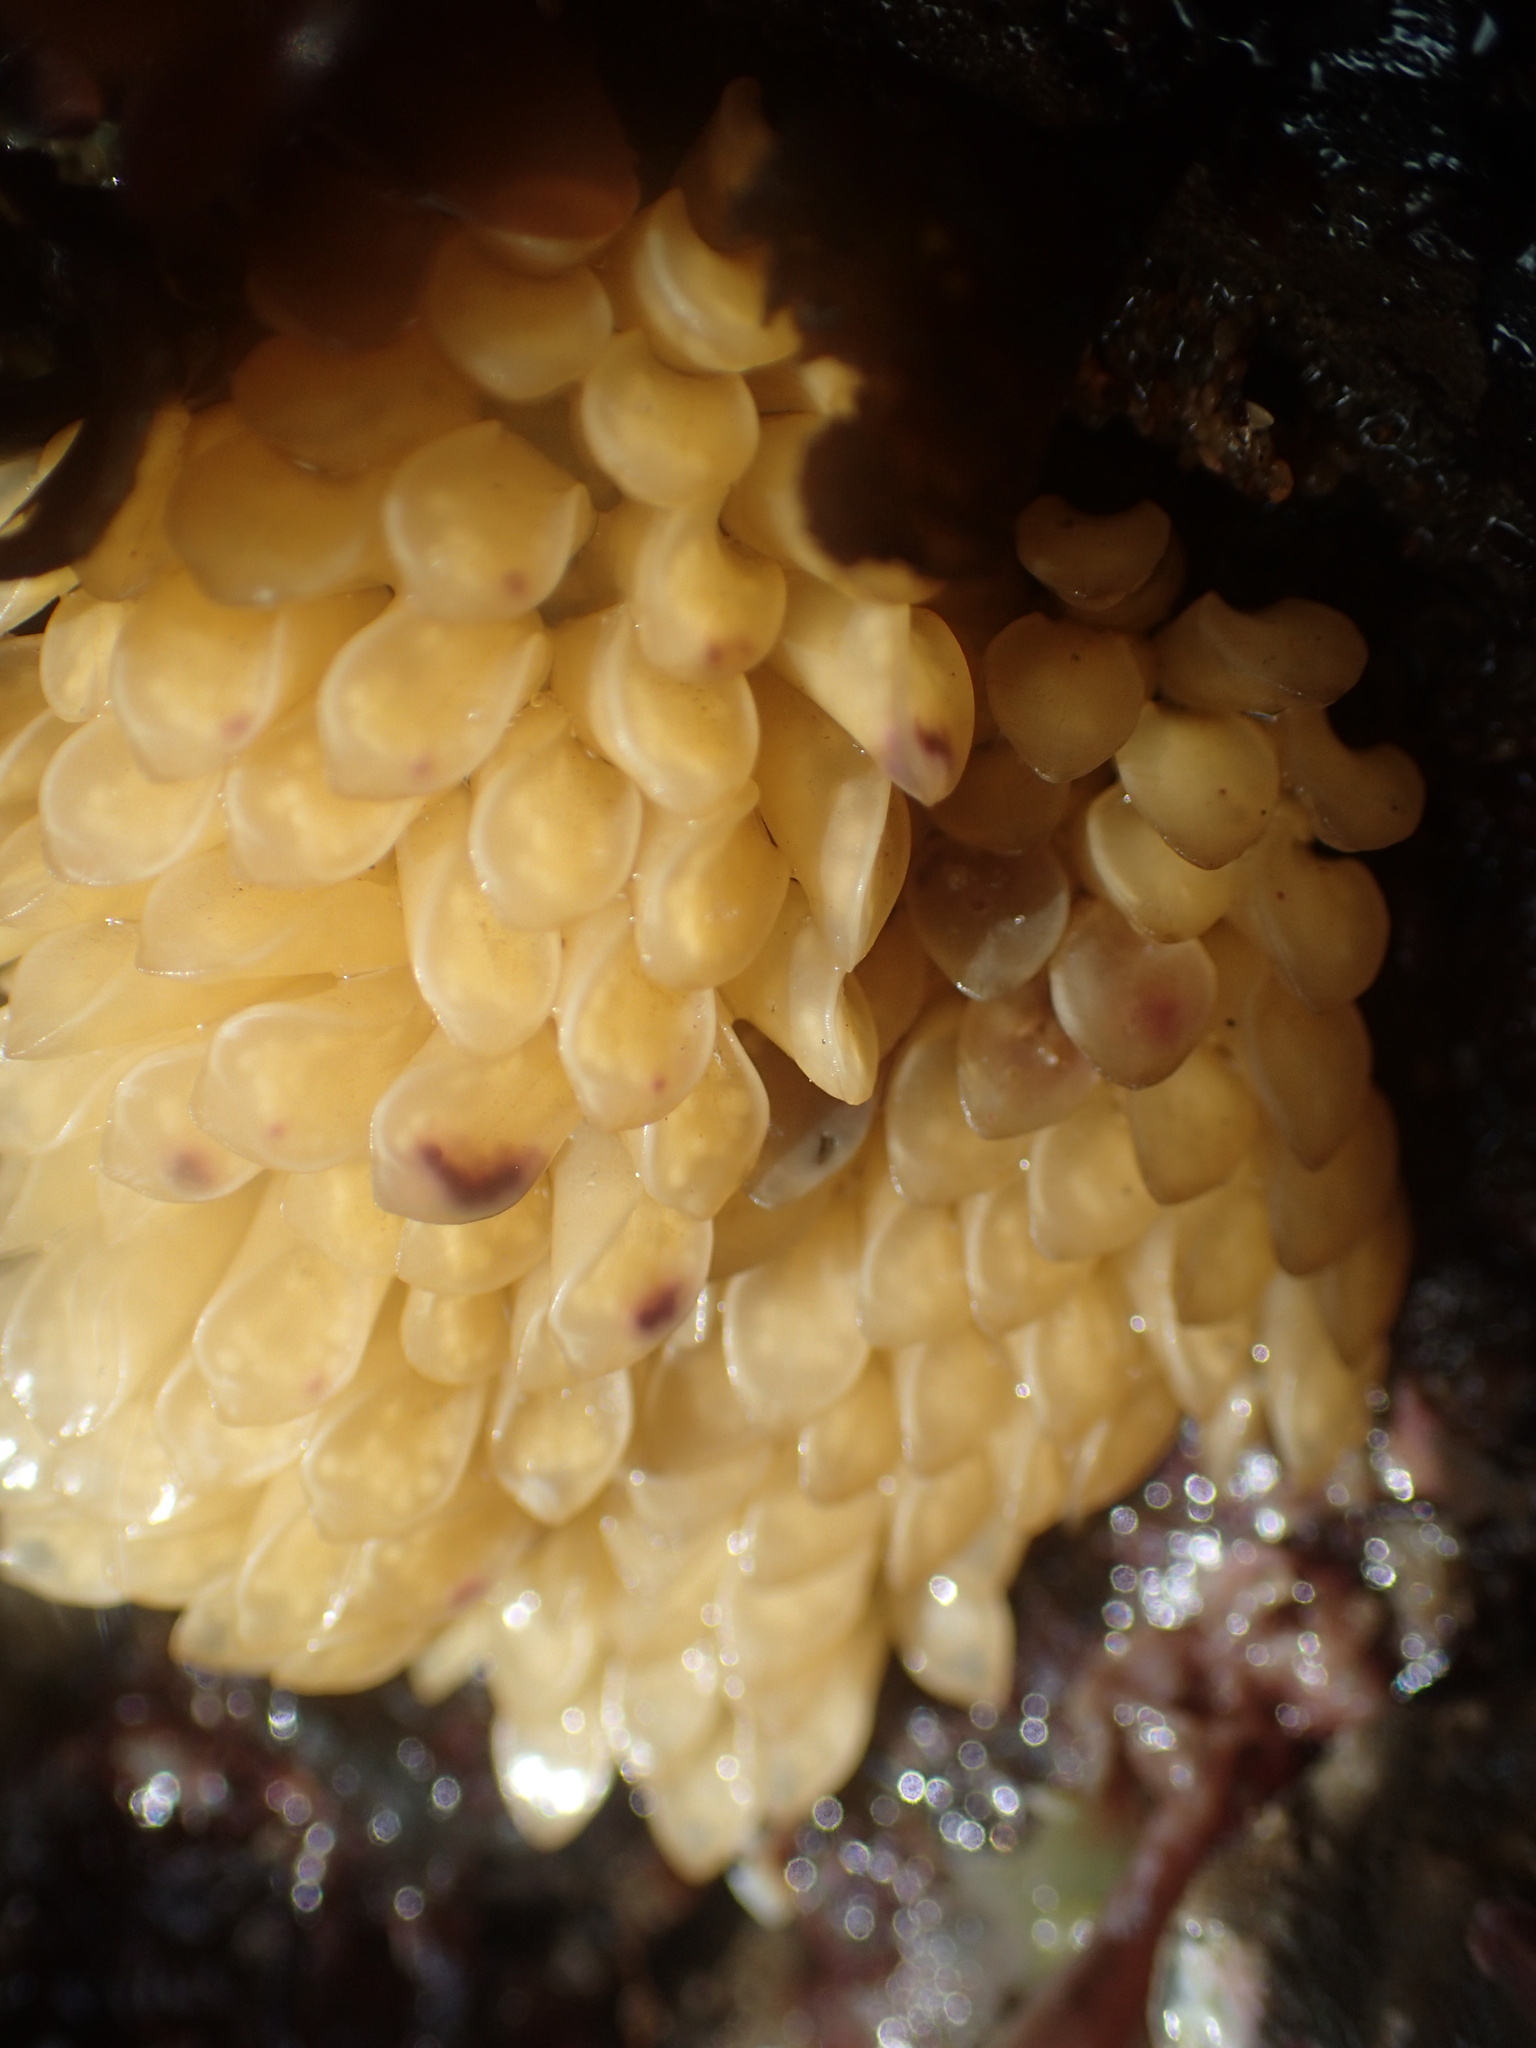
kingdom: Animalia
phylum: Mollusca
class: Gastropoda
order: Neogastropoda
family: Muricidae
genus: Ceratostoma
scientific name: Ceratostoma foliatum
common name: Foliate thorn purpura
